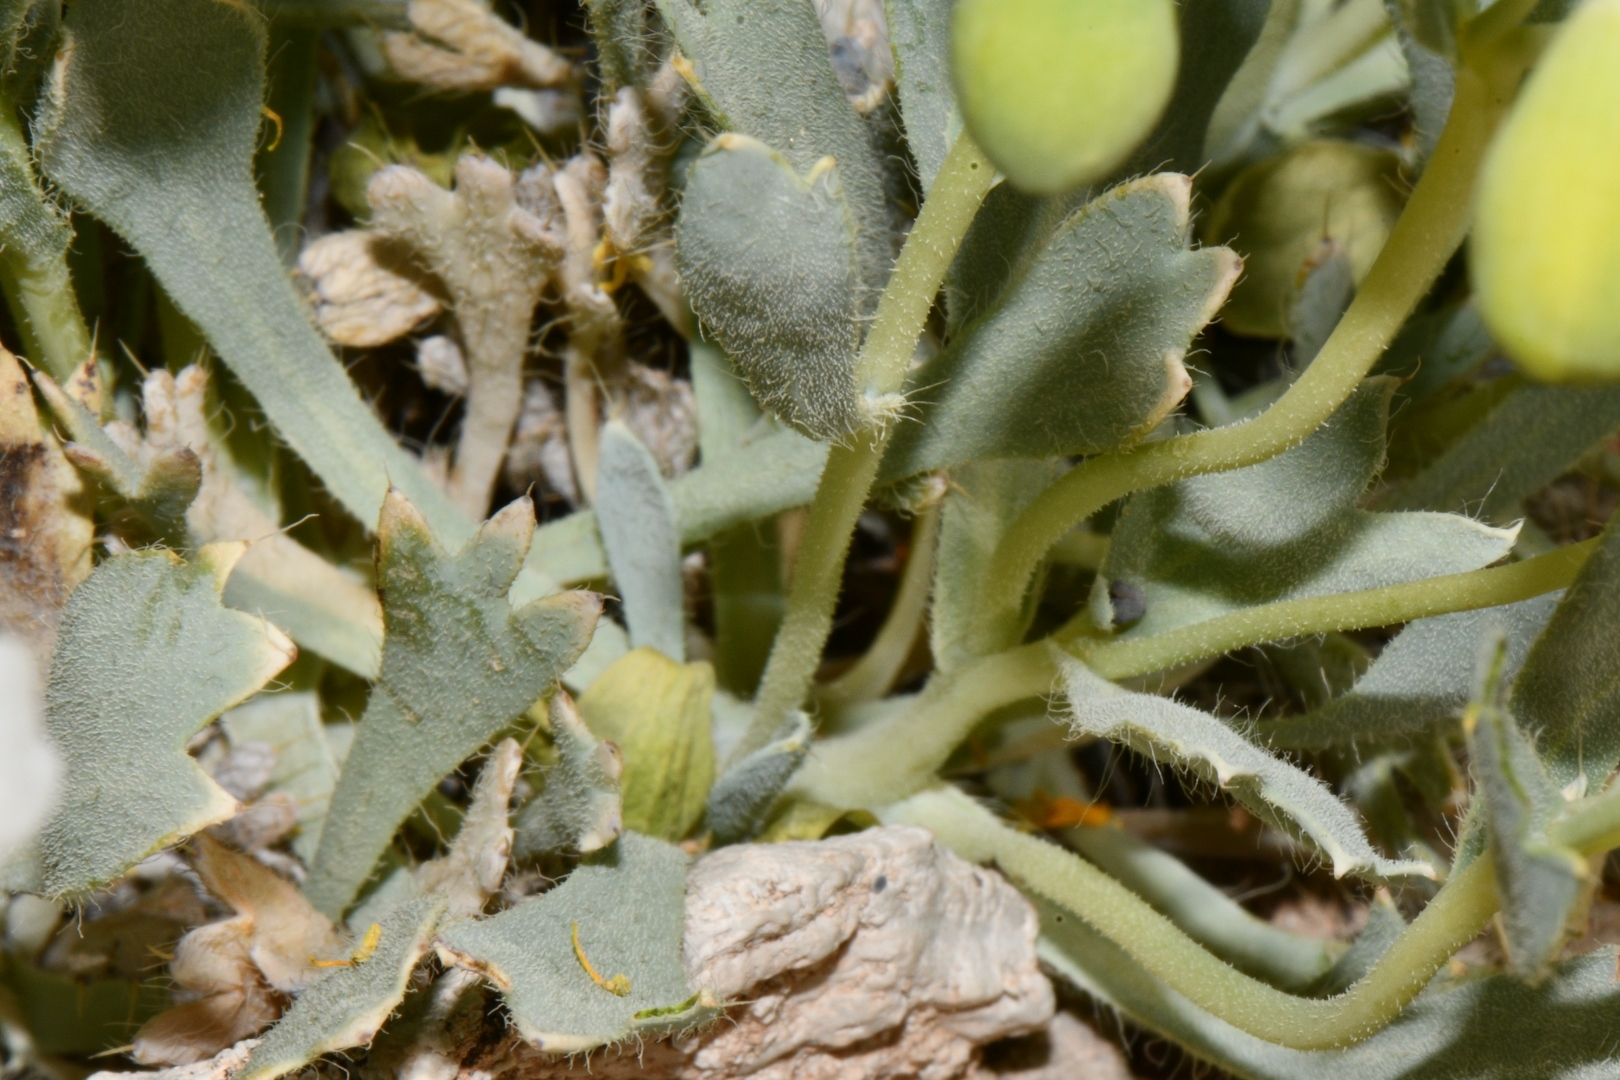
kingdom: Plantae
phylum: Tracheophyta
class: Magnoliopsida
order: Ranunculales
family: Papaveraceae
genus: Arctomecon
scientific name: Arctomecon humilis
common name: Dwarf bear-poppy
